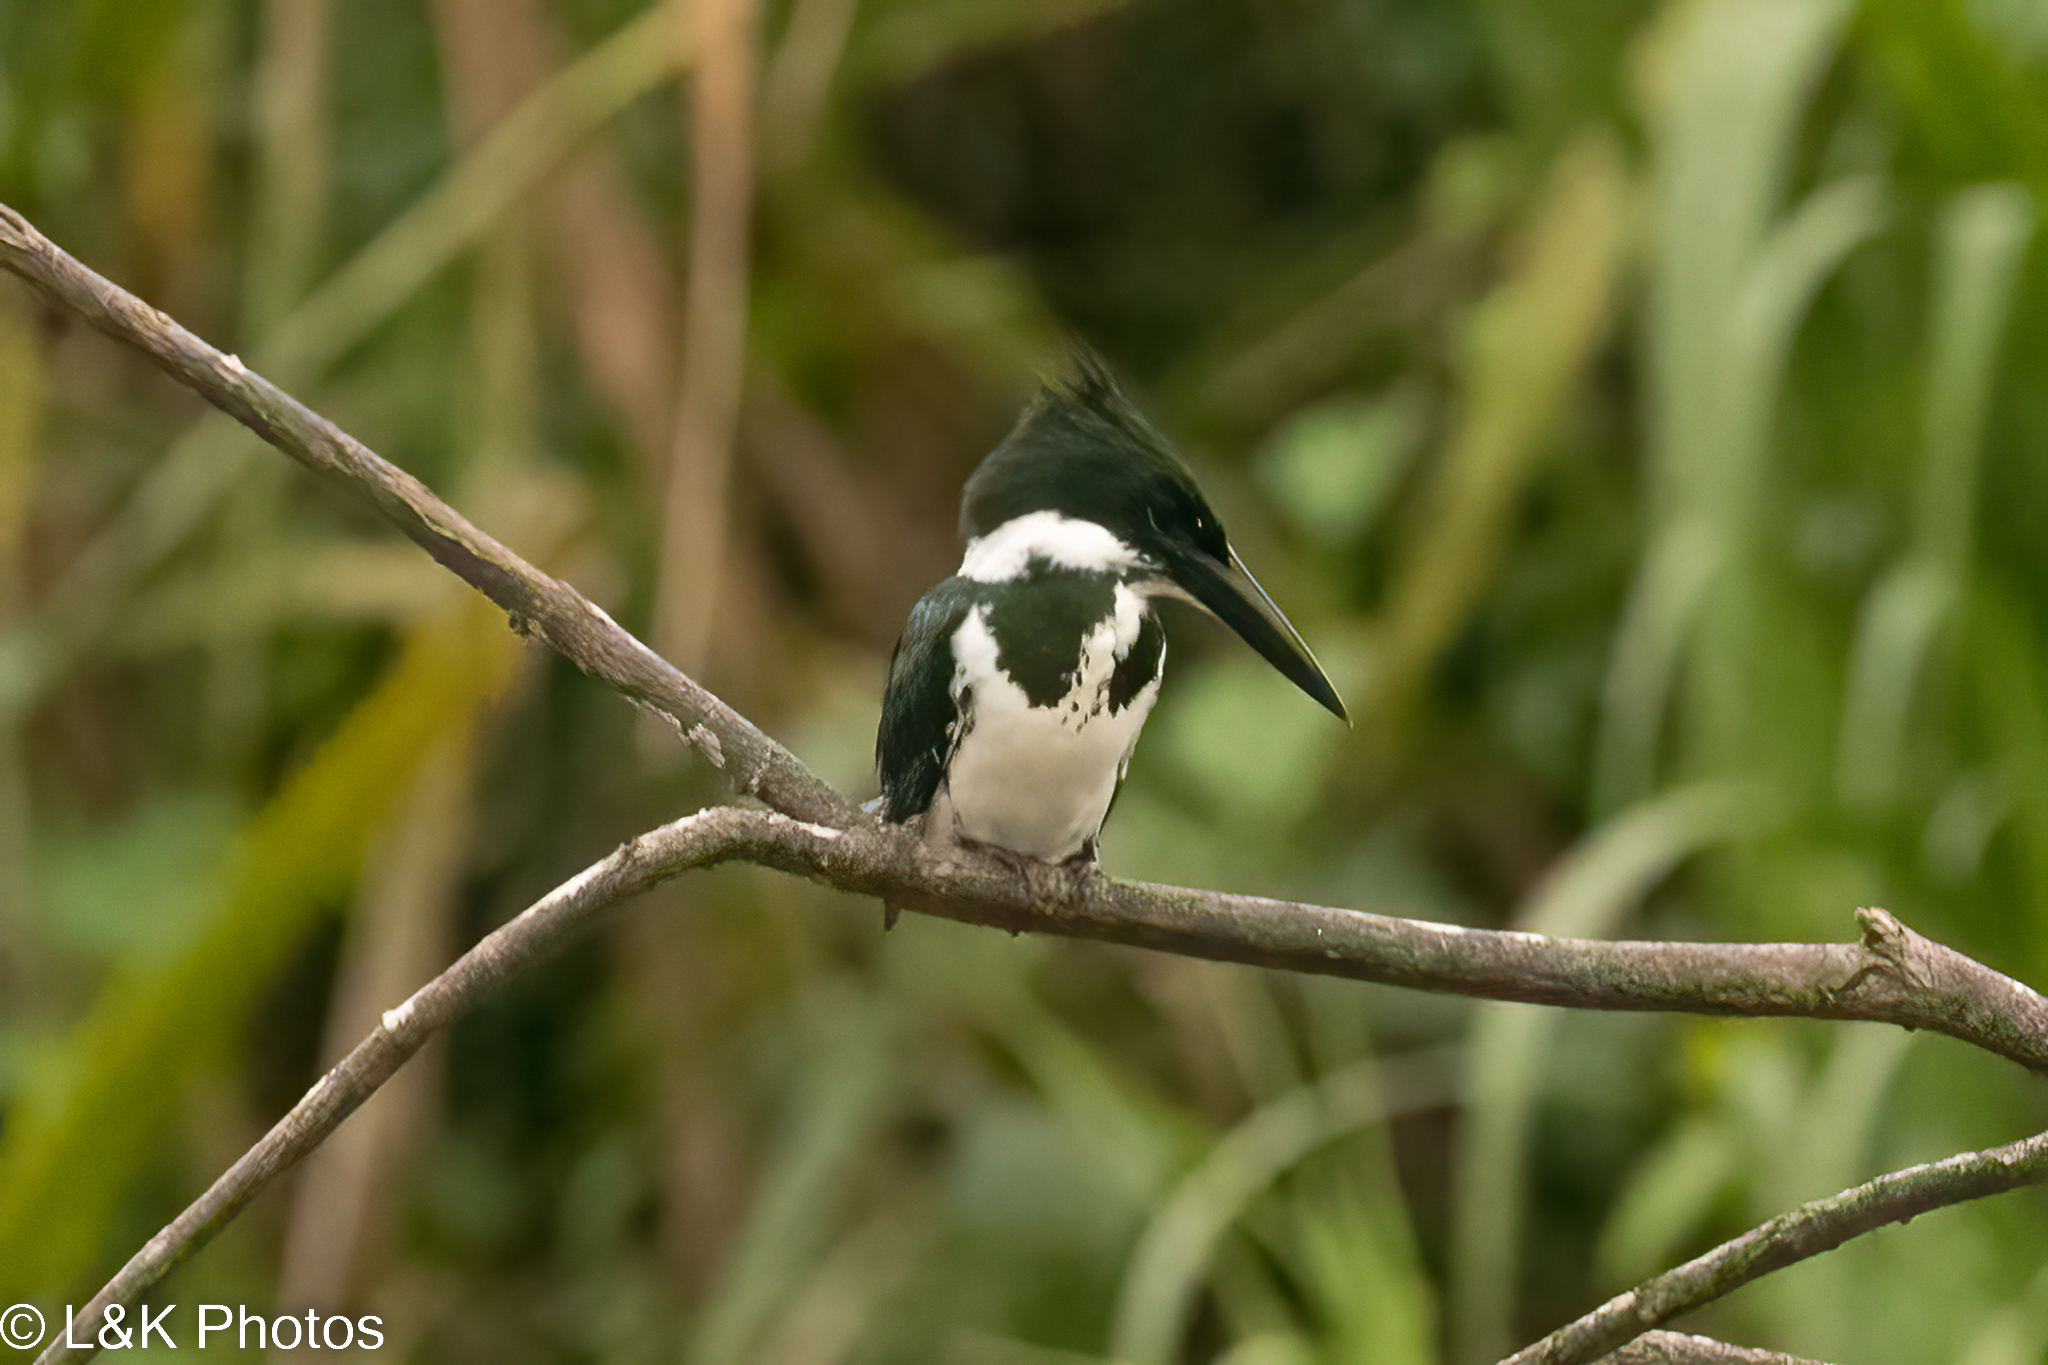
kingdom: Animalia
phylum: Chordata
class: Aves
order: Coraciiformes
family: Alcedinidae
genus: Chloroceryle
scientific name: Chloroceryle amazona
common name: Amazon kingfisher
